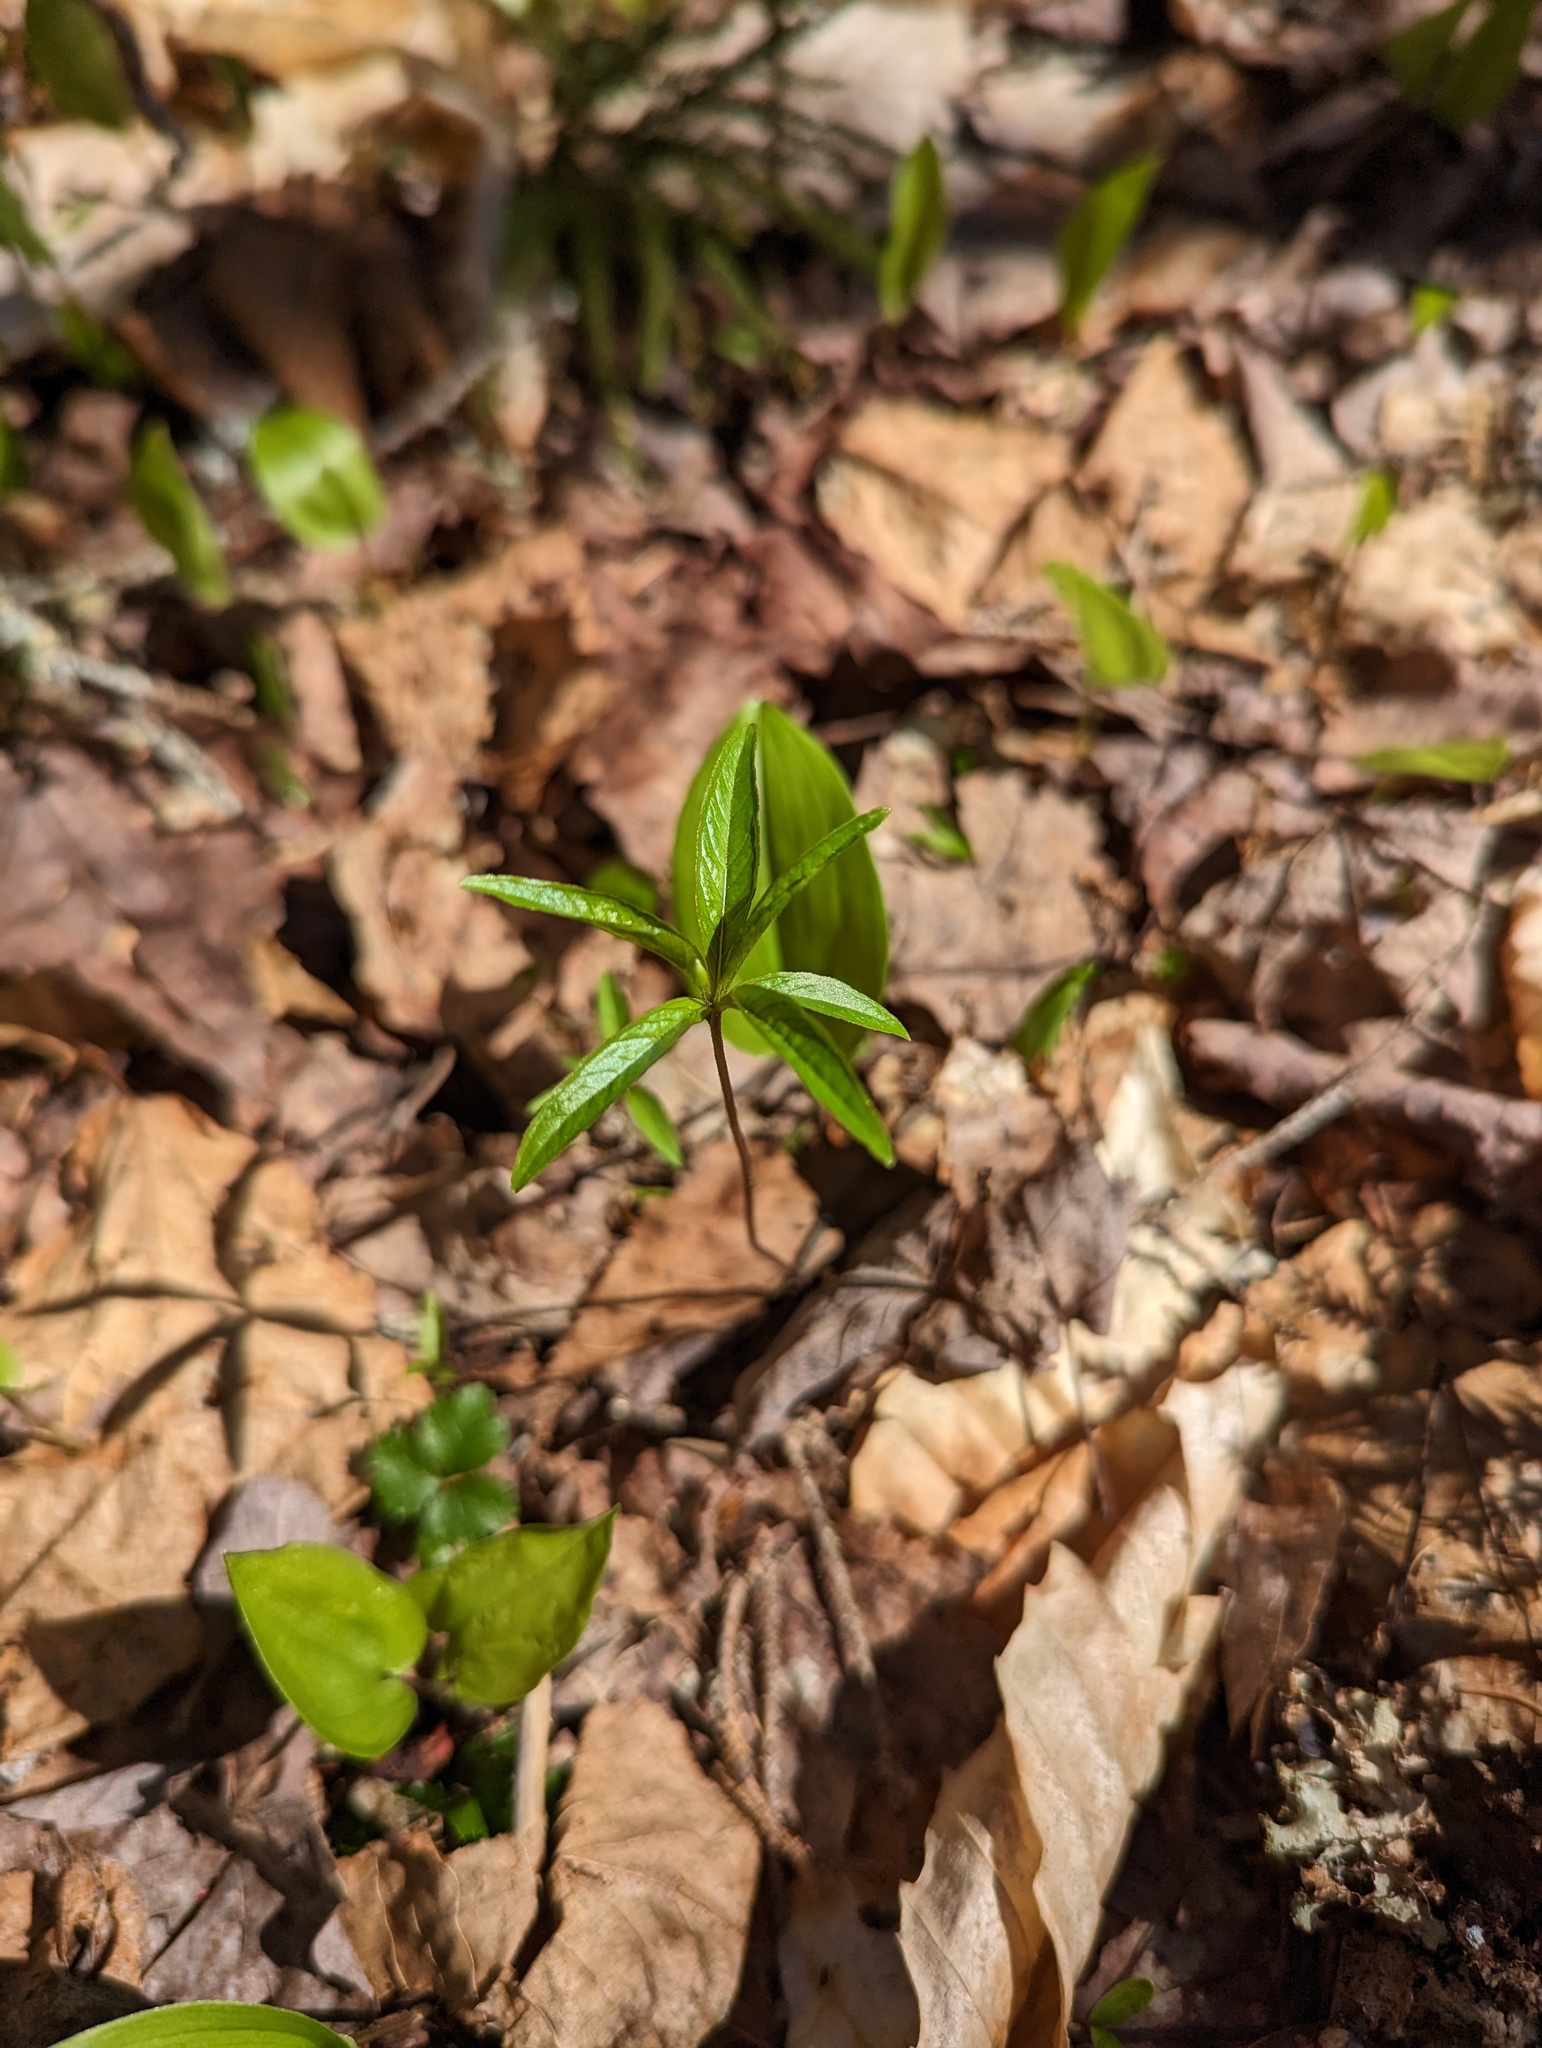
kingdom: Plantae
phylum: Tracheophyta
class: Magnoliopsida
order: Ericales
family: Primulaceae
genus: Lysimachia
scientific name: Lysimachia borealis
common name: American starflower
